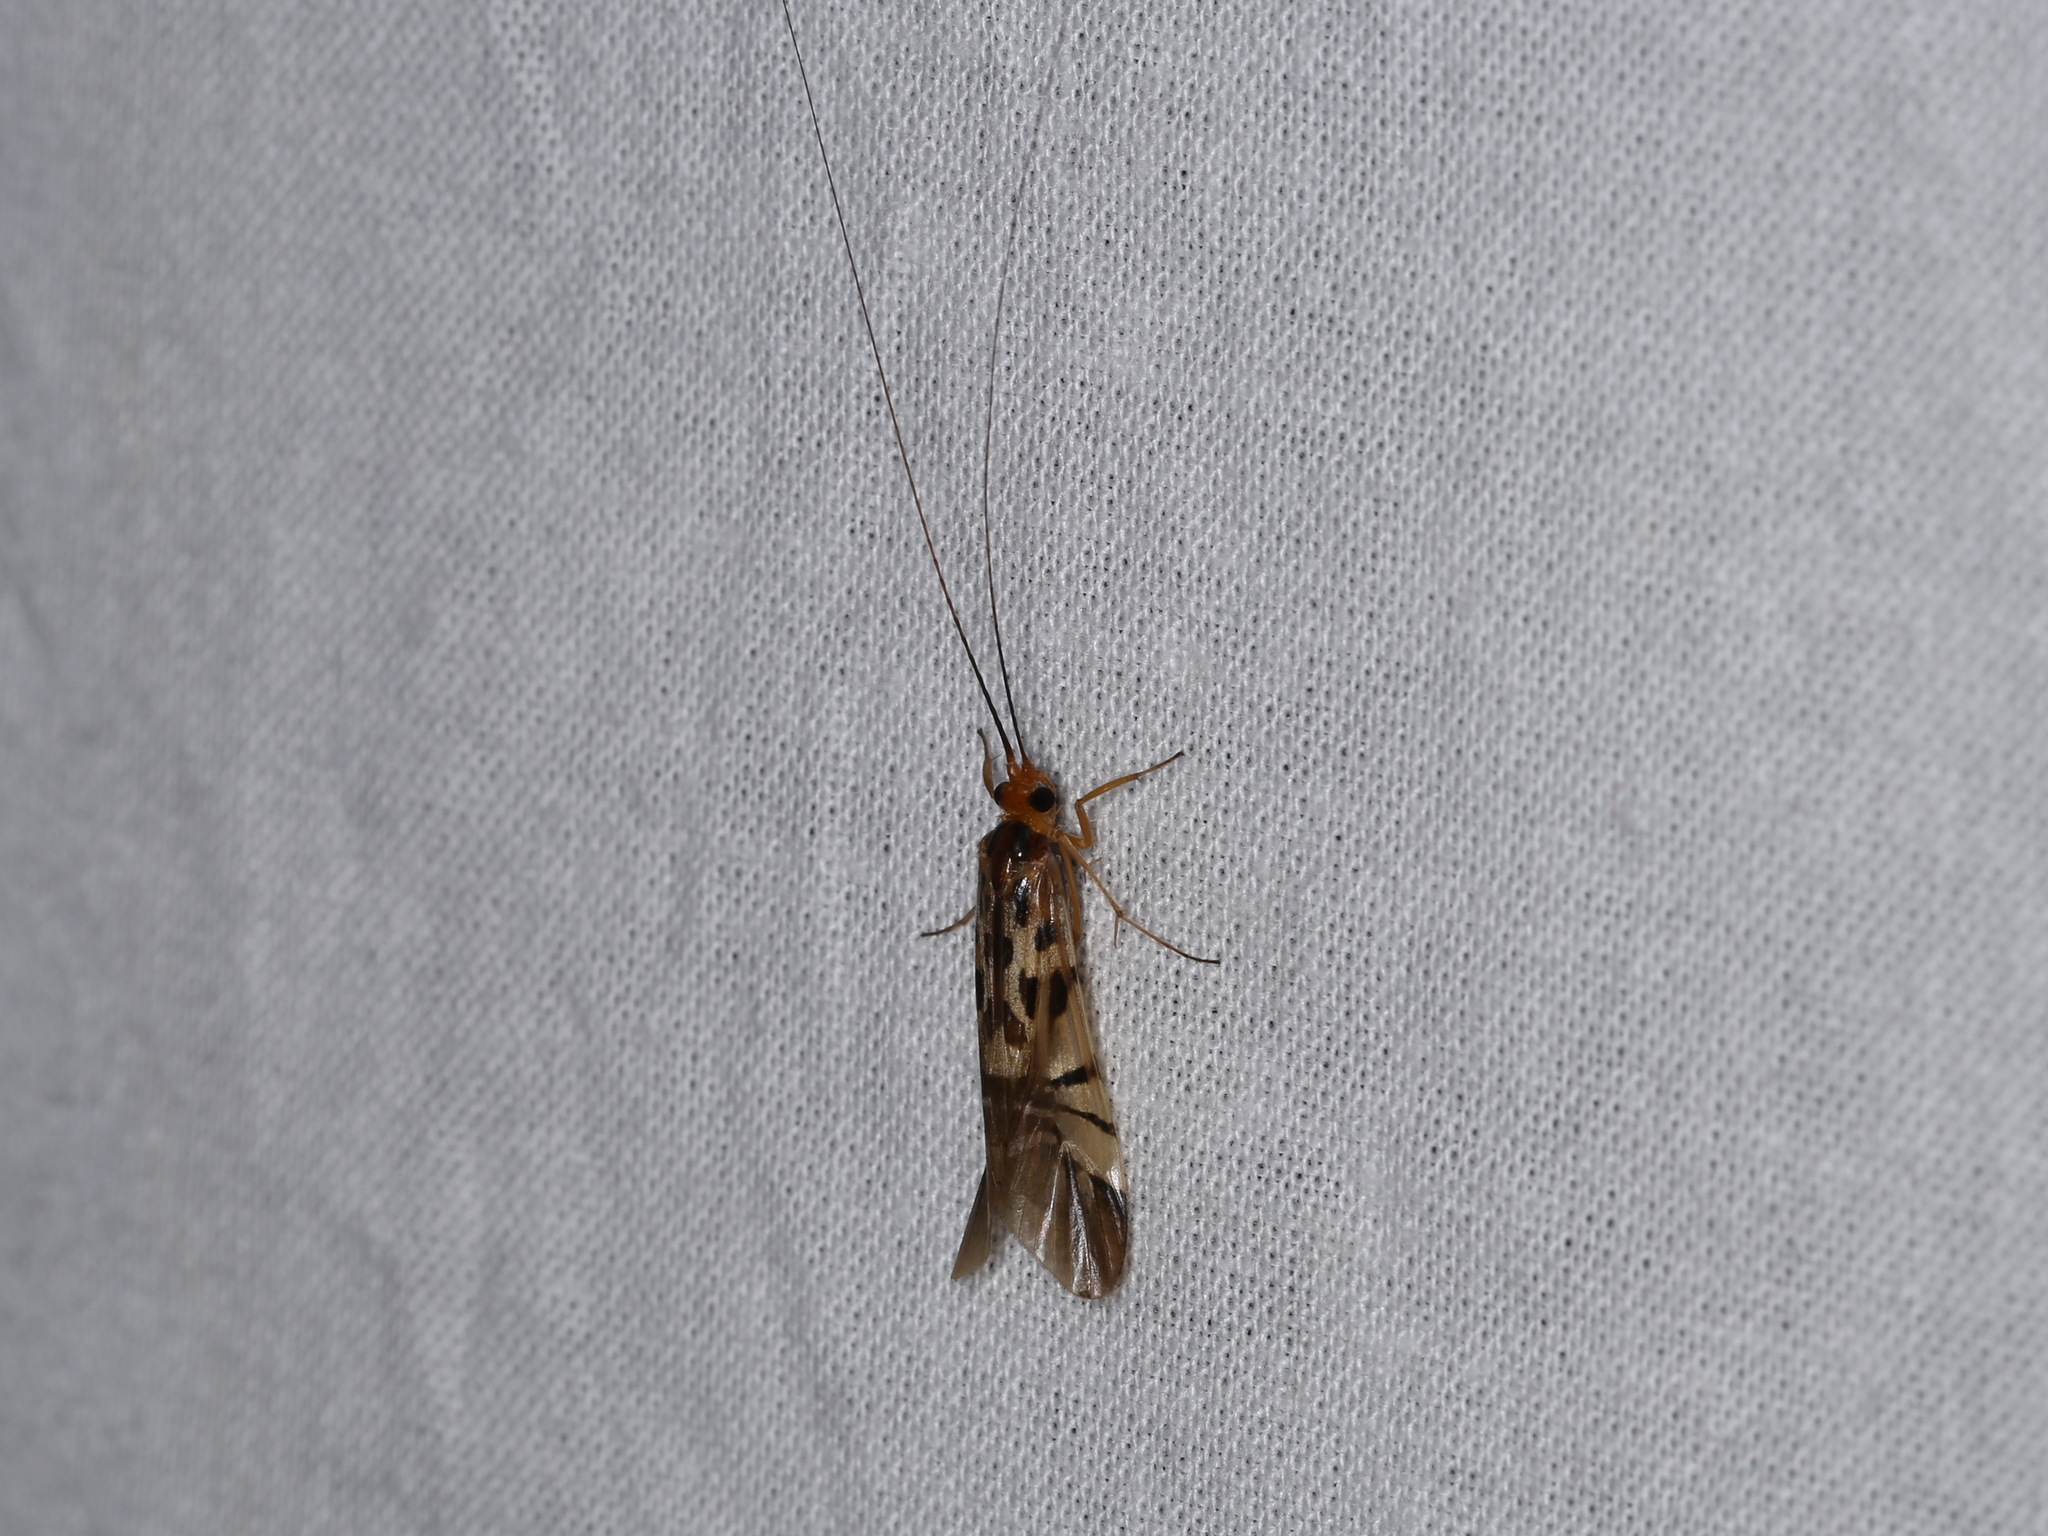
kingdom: Animalia
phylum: Arthropoda
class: Insecta
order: Trichoptera
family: Hydropsychidae
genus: Macrostemum
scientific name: Macrostemum floridum
